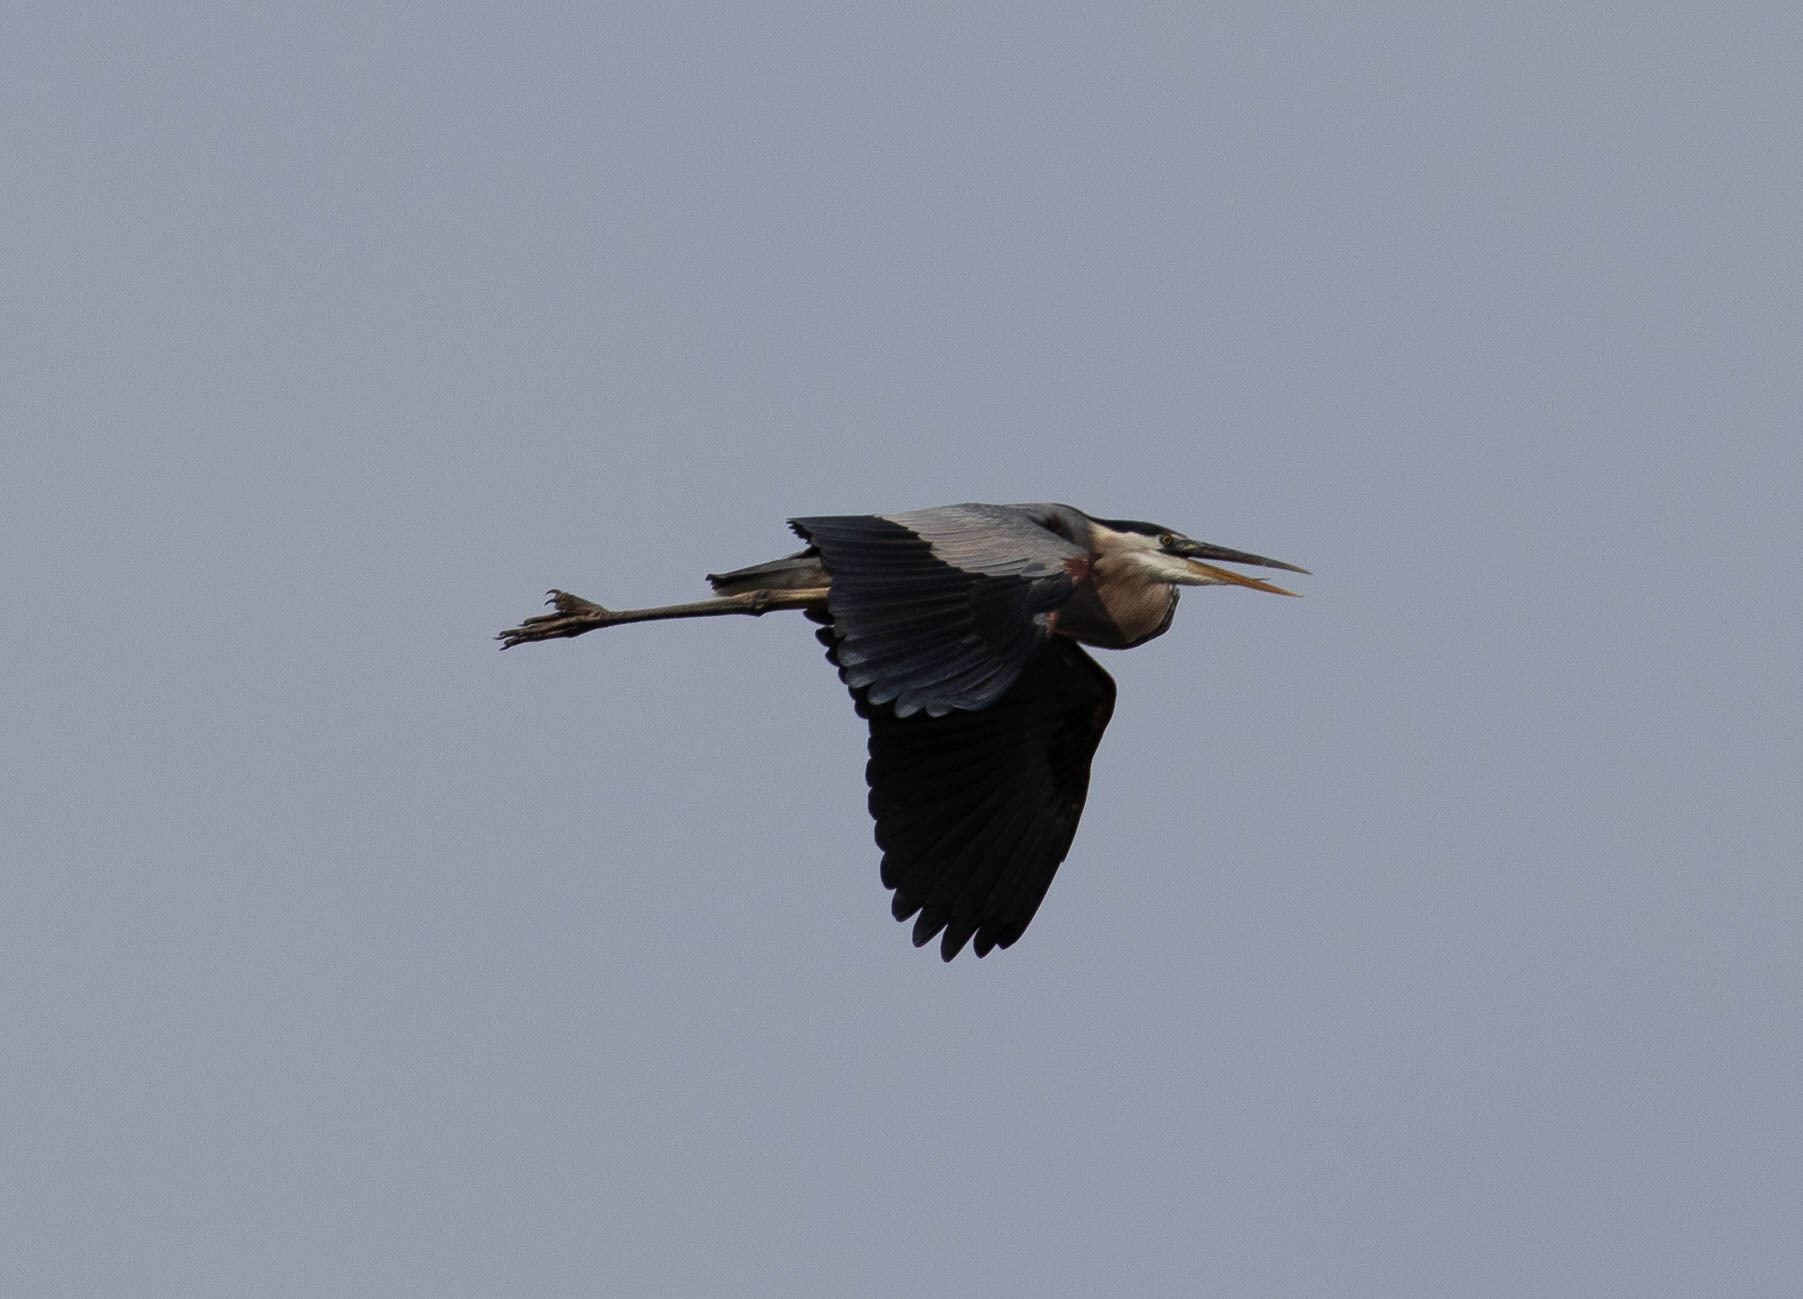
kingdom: Animalia
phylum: Chordata
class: Aves
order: Pelecaniformes
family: Ardeidae
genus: Ardea
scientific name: Ardea herodias
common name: Great blue heron
